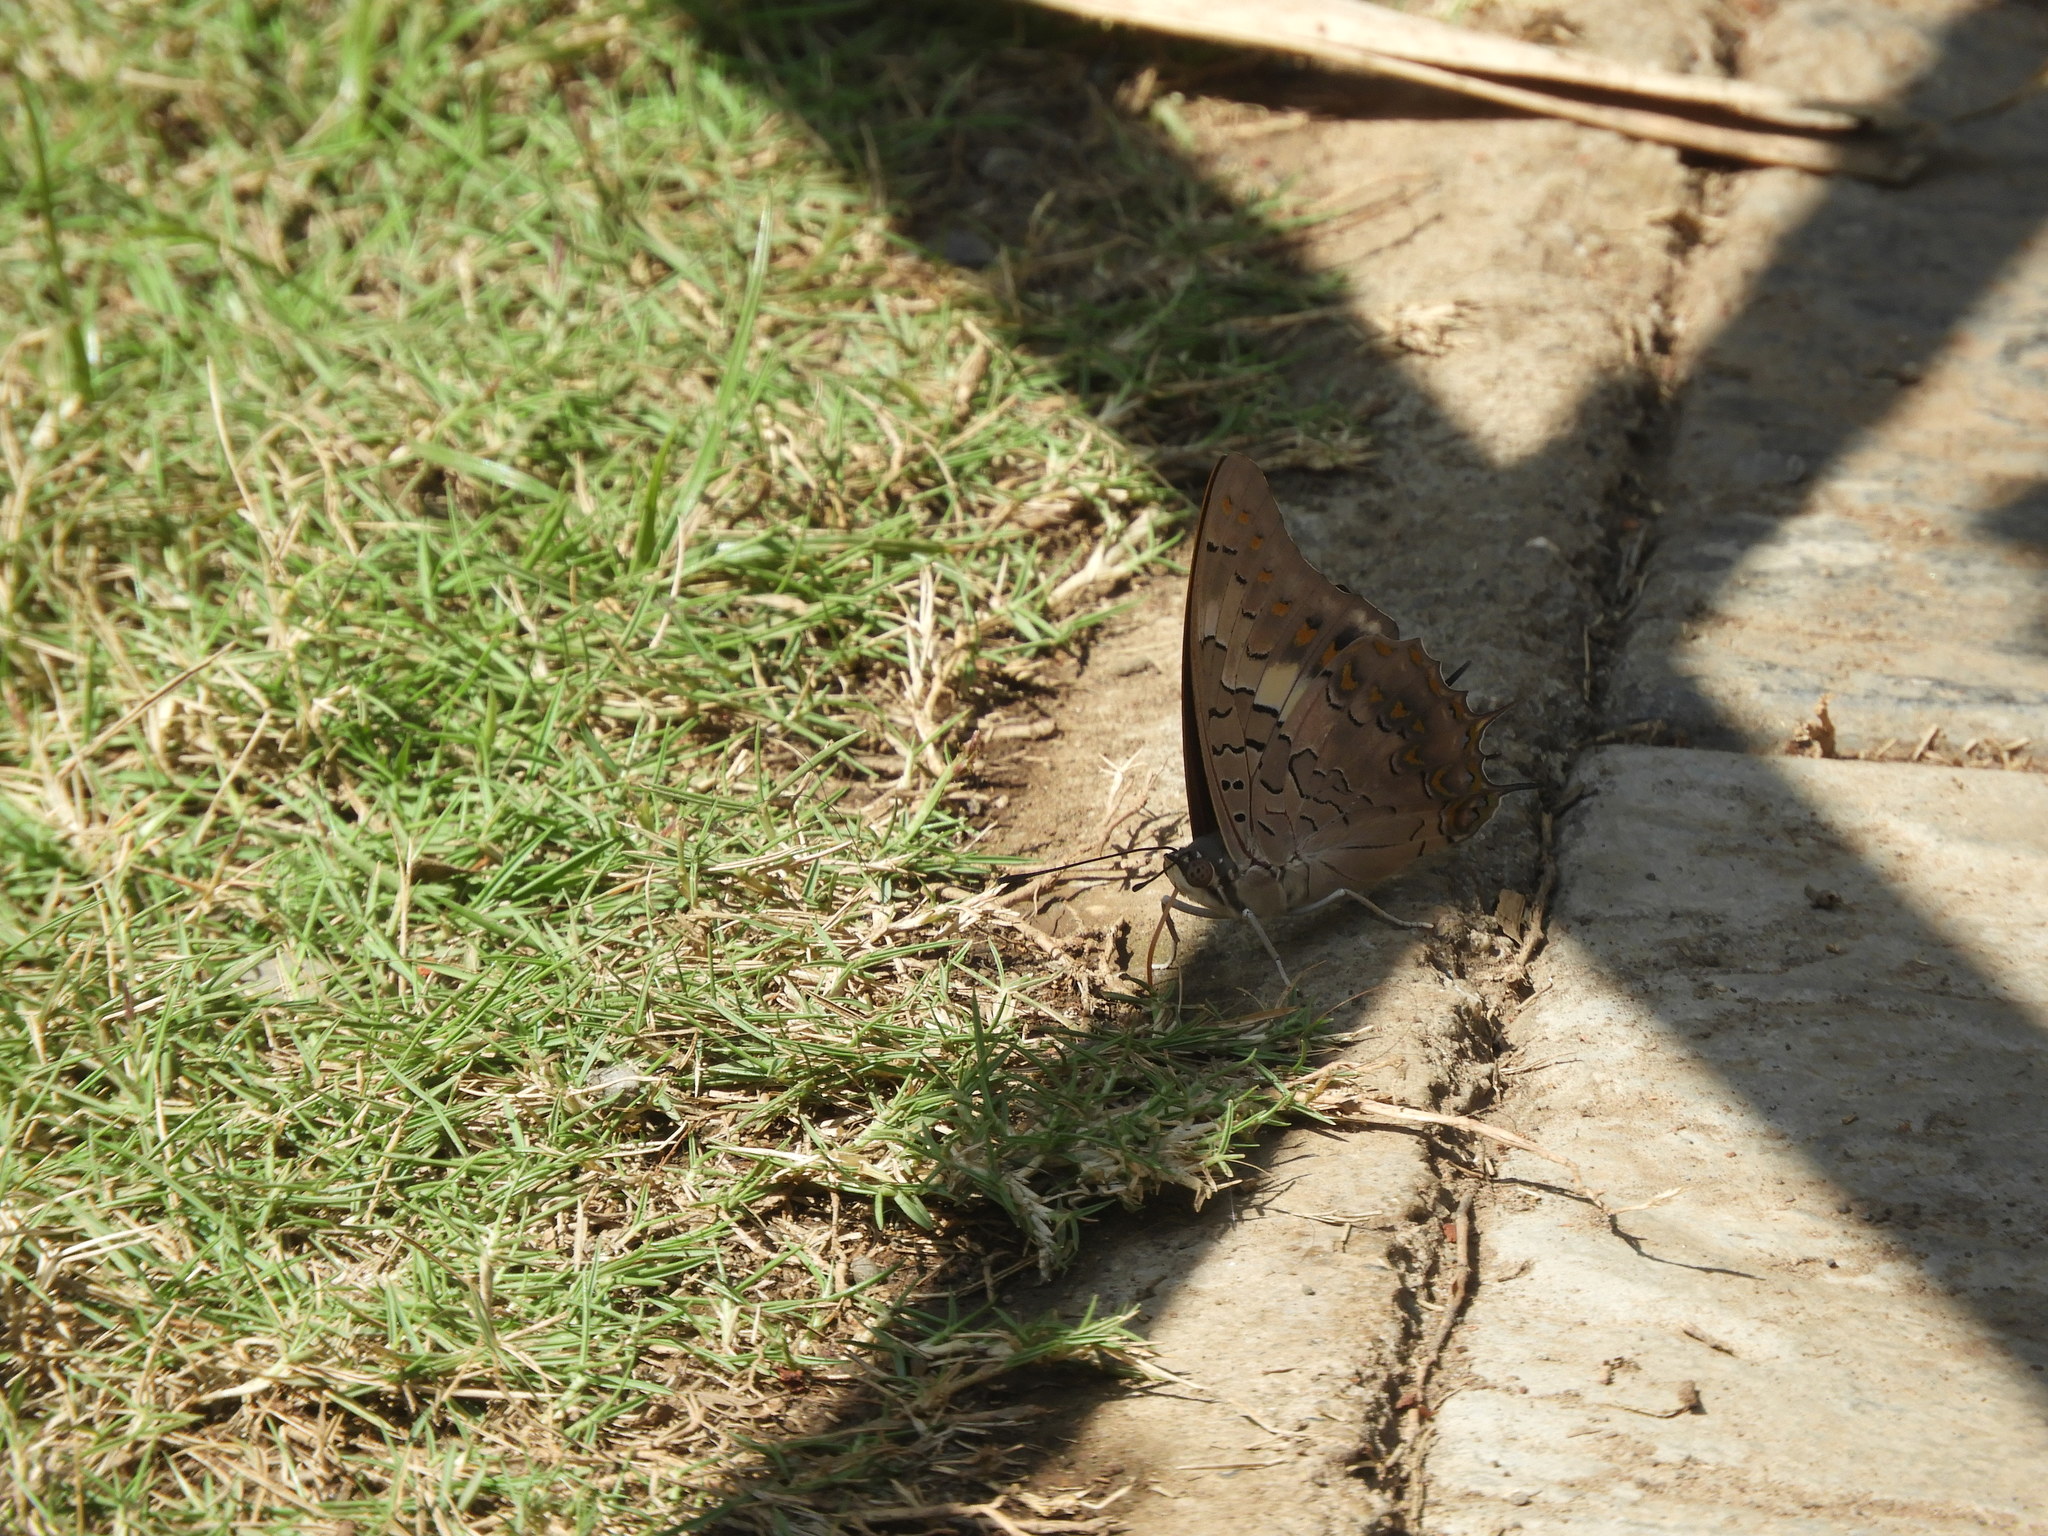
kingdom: Animalia
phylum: Arthropoda
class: Insecta
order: Lepidoptera
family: Nymphalidae
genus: Charaxes
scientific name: Charaxes solon
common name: Black rajah
